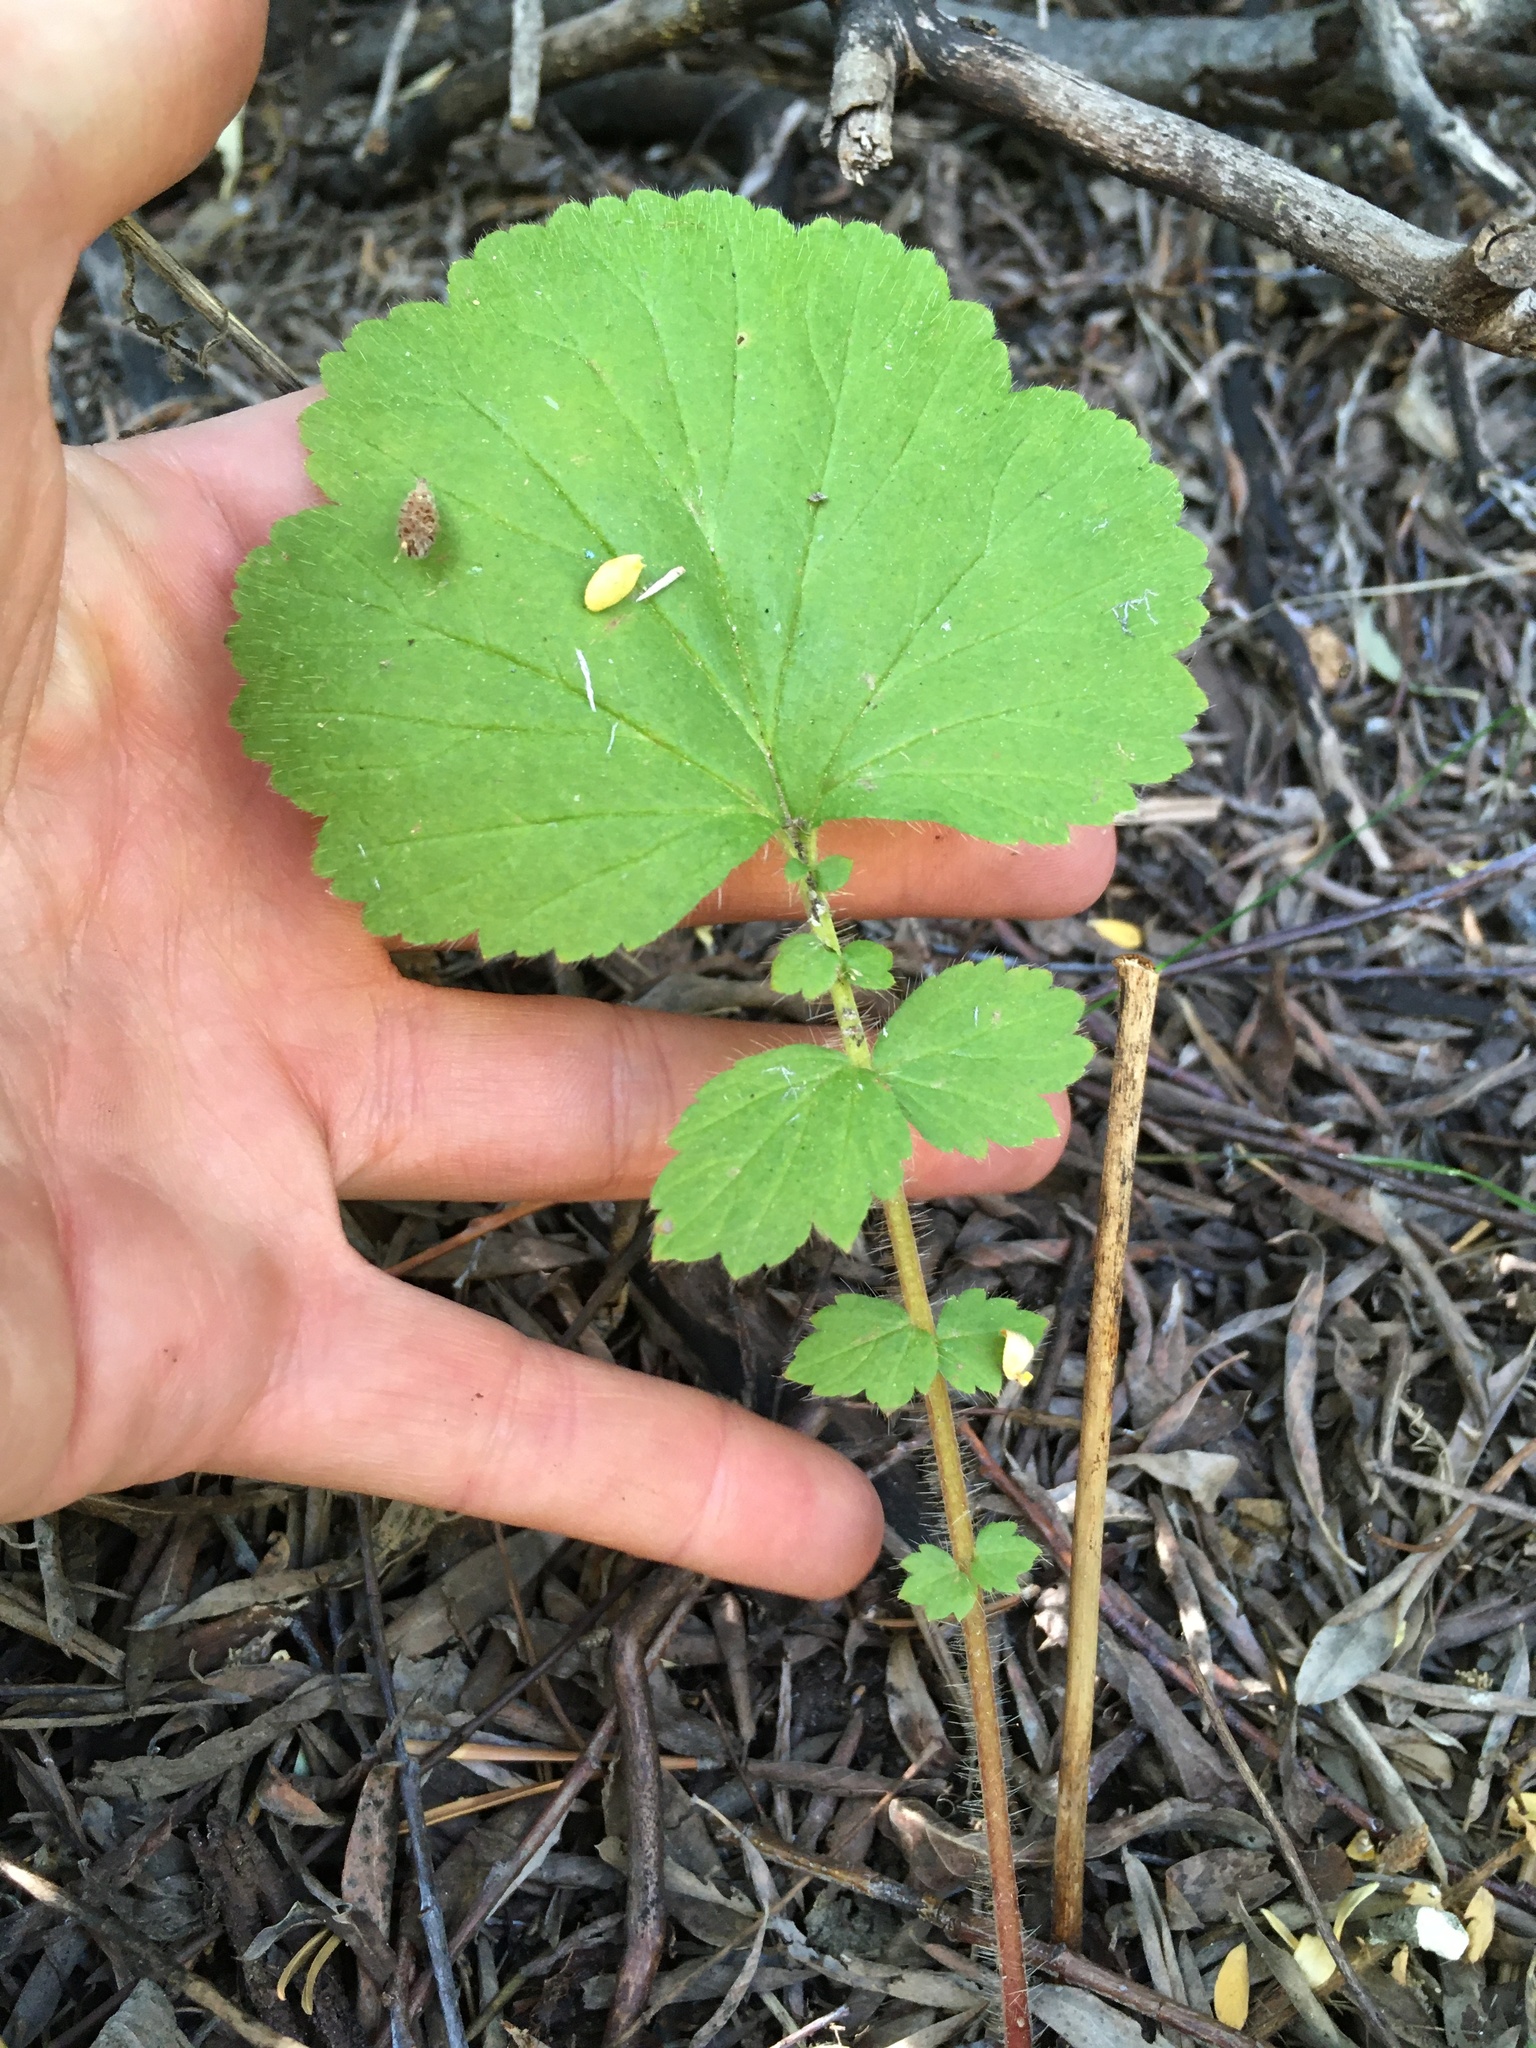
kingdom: Plantae
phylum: Tracheophyta
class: Magnoliopsida
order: Rosales
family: Rosaceae
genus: Geum
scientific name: Geum macrophyllum
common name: Large-leaved avens
